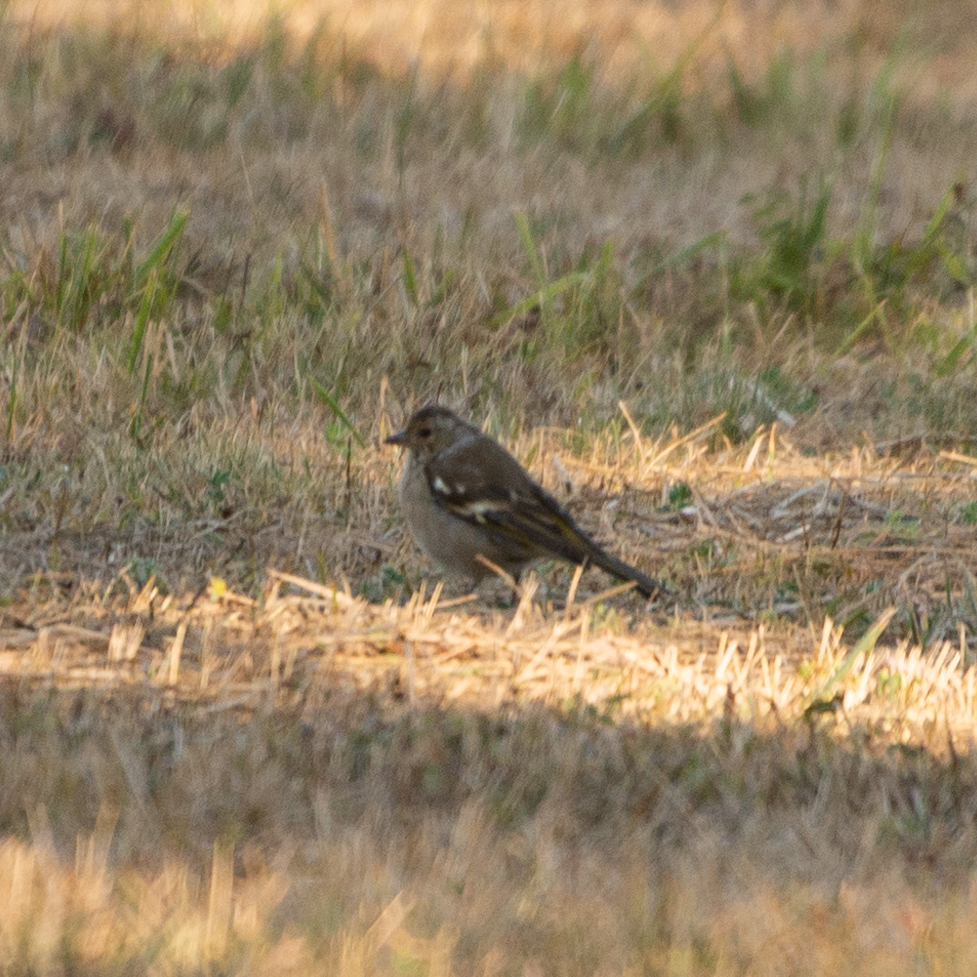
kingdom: Animalia
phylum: Chordata
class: Aves
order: Passeriformes
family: Fringillidae
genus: Fringilla
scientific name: Fringilla coelebs
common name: Common chaffinch
